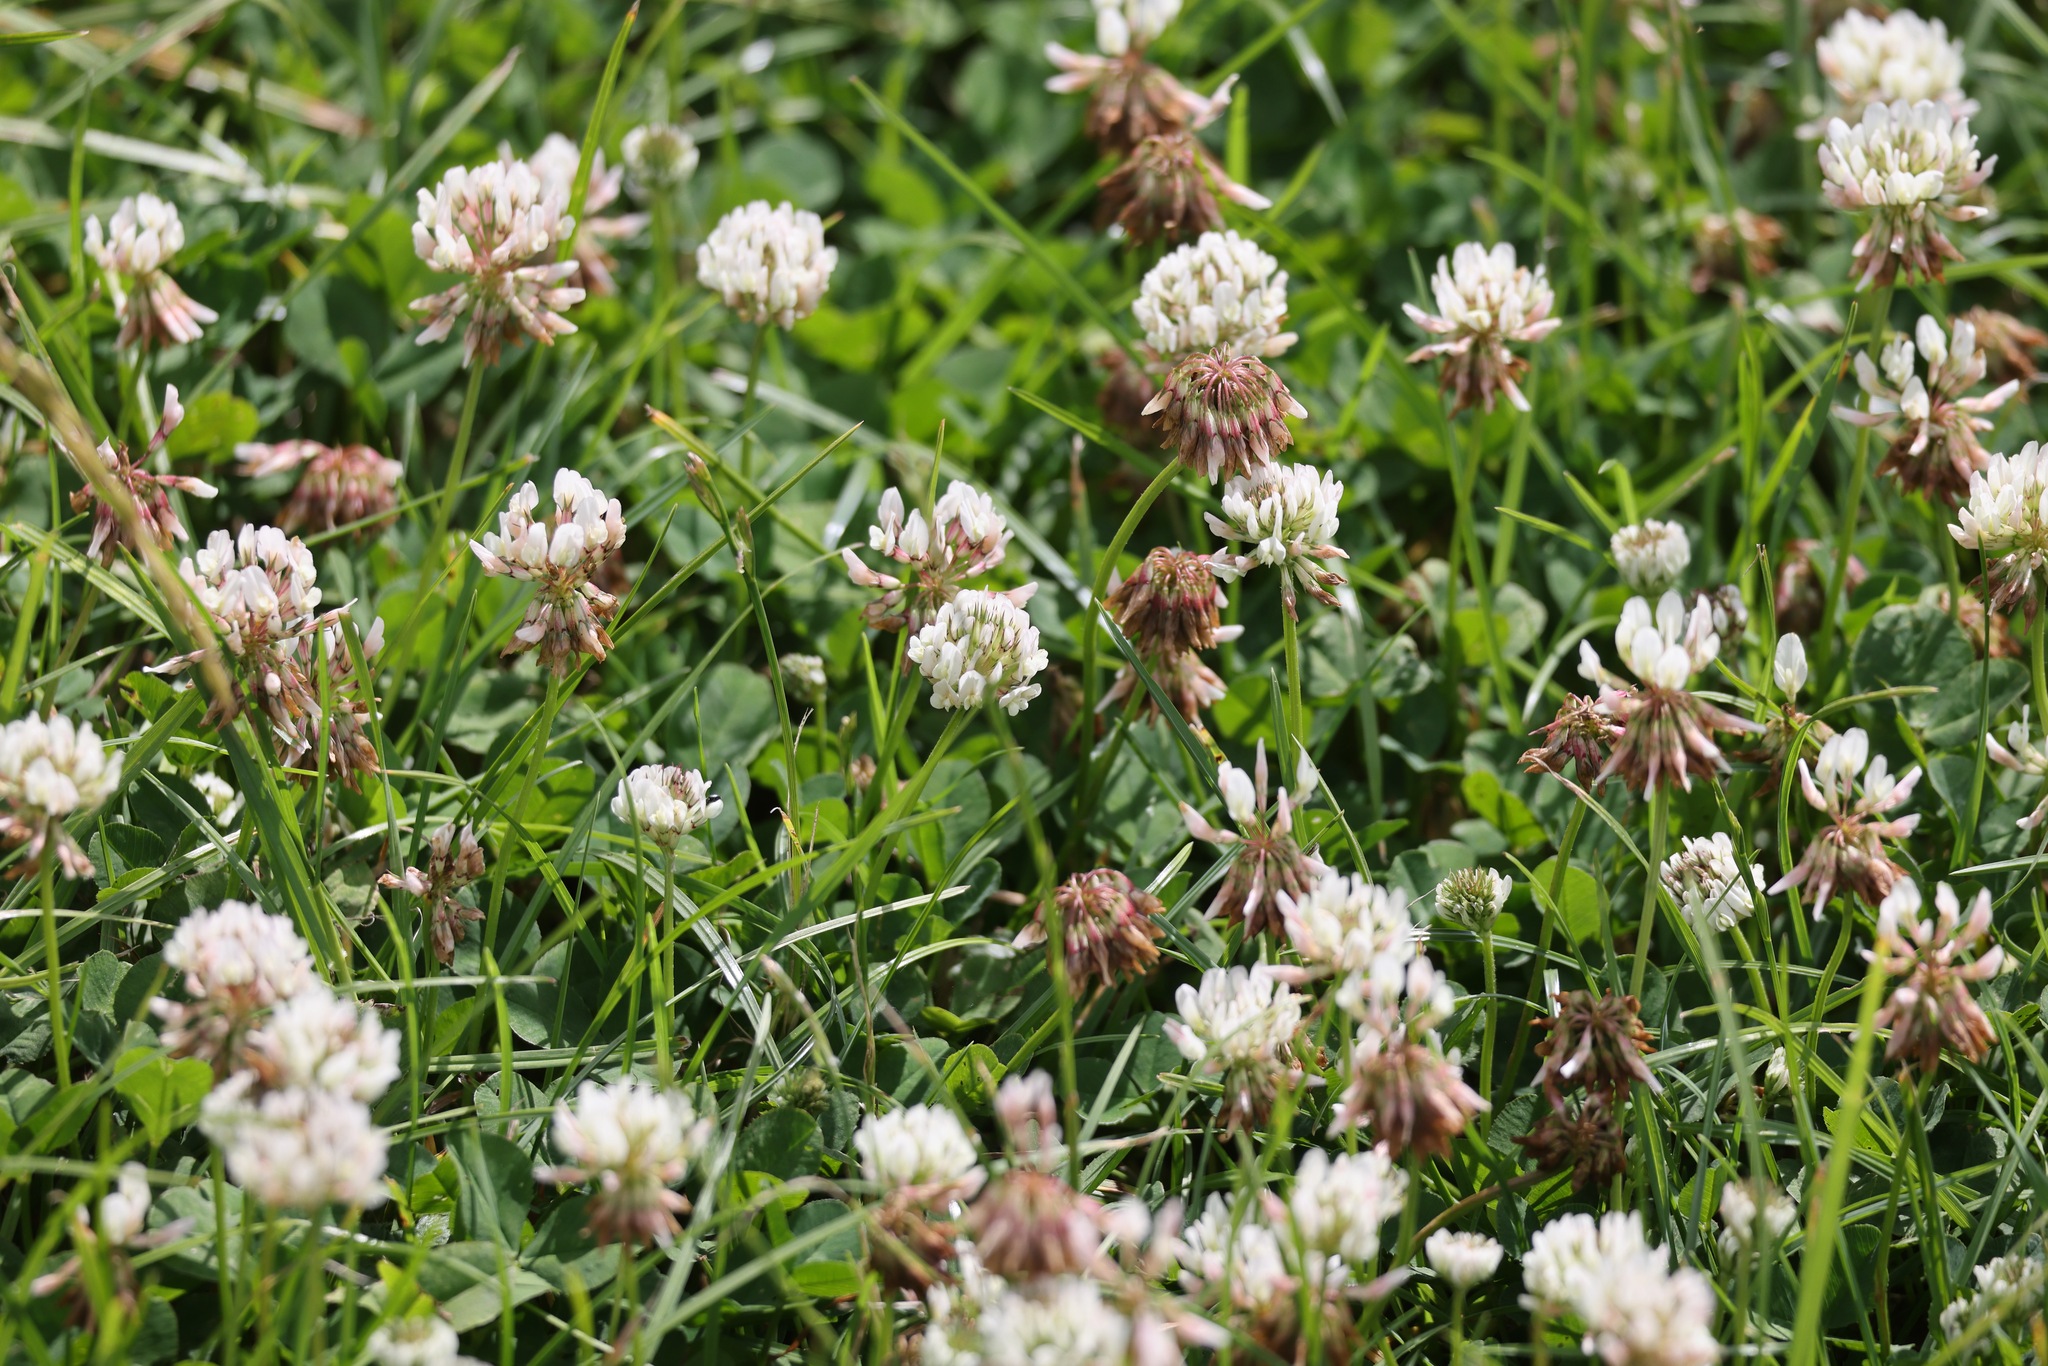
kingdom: Plantae
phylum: Tracheophyta
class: Magnoliopsida
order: Fabales
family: Fabaceae
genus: Trifolium
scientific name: Trifolium repens
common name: White clover
